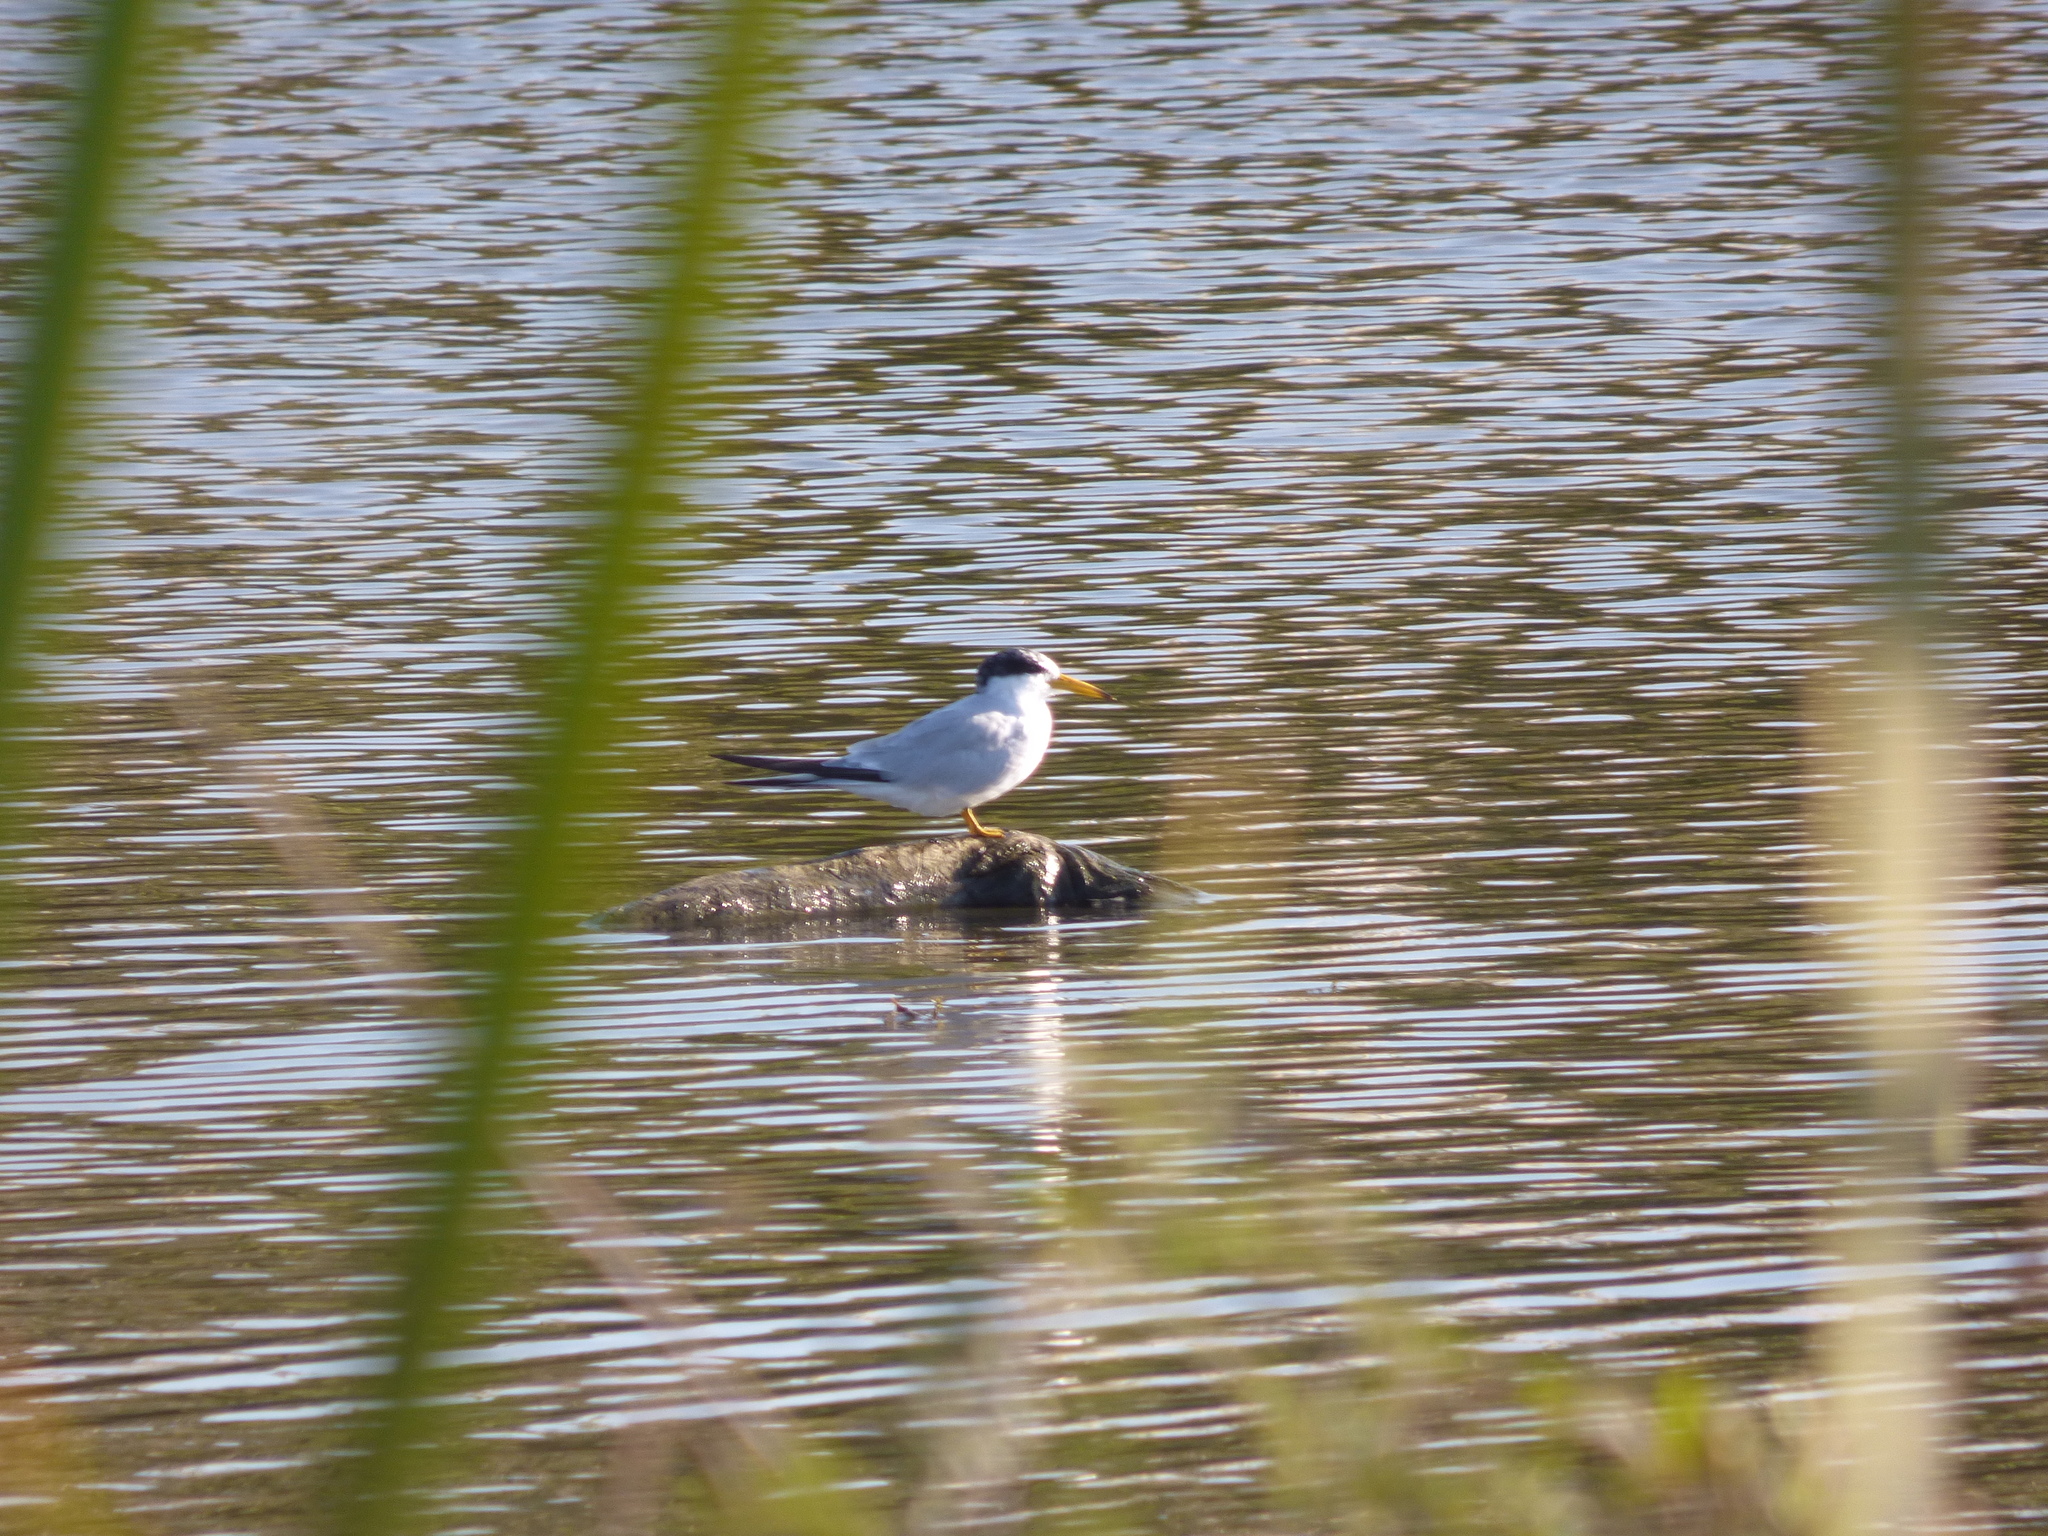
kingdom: Animalia
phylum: Chordata
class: Aves
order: Charadriiformes
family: Laridae
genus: Sternula
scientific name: Sternula superciliaris
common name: Yellow-billed tern
